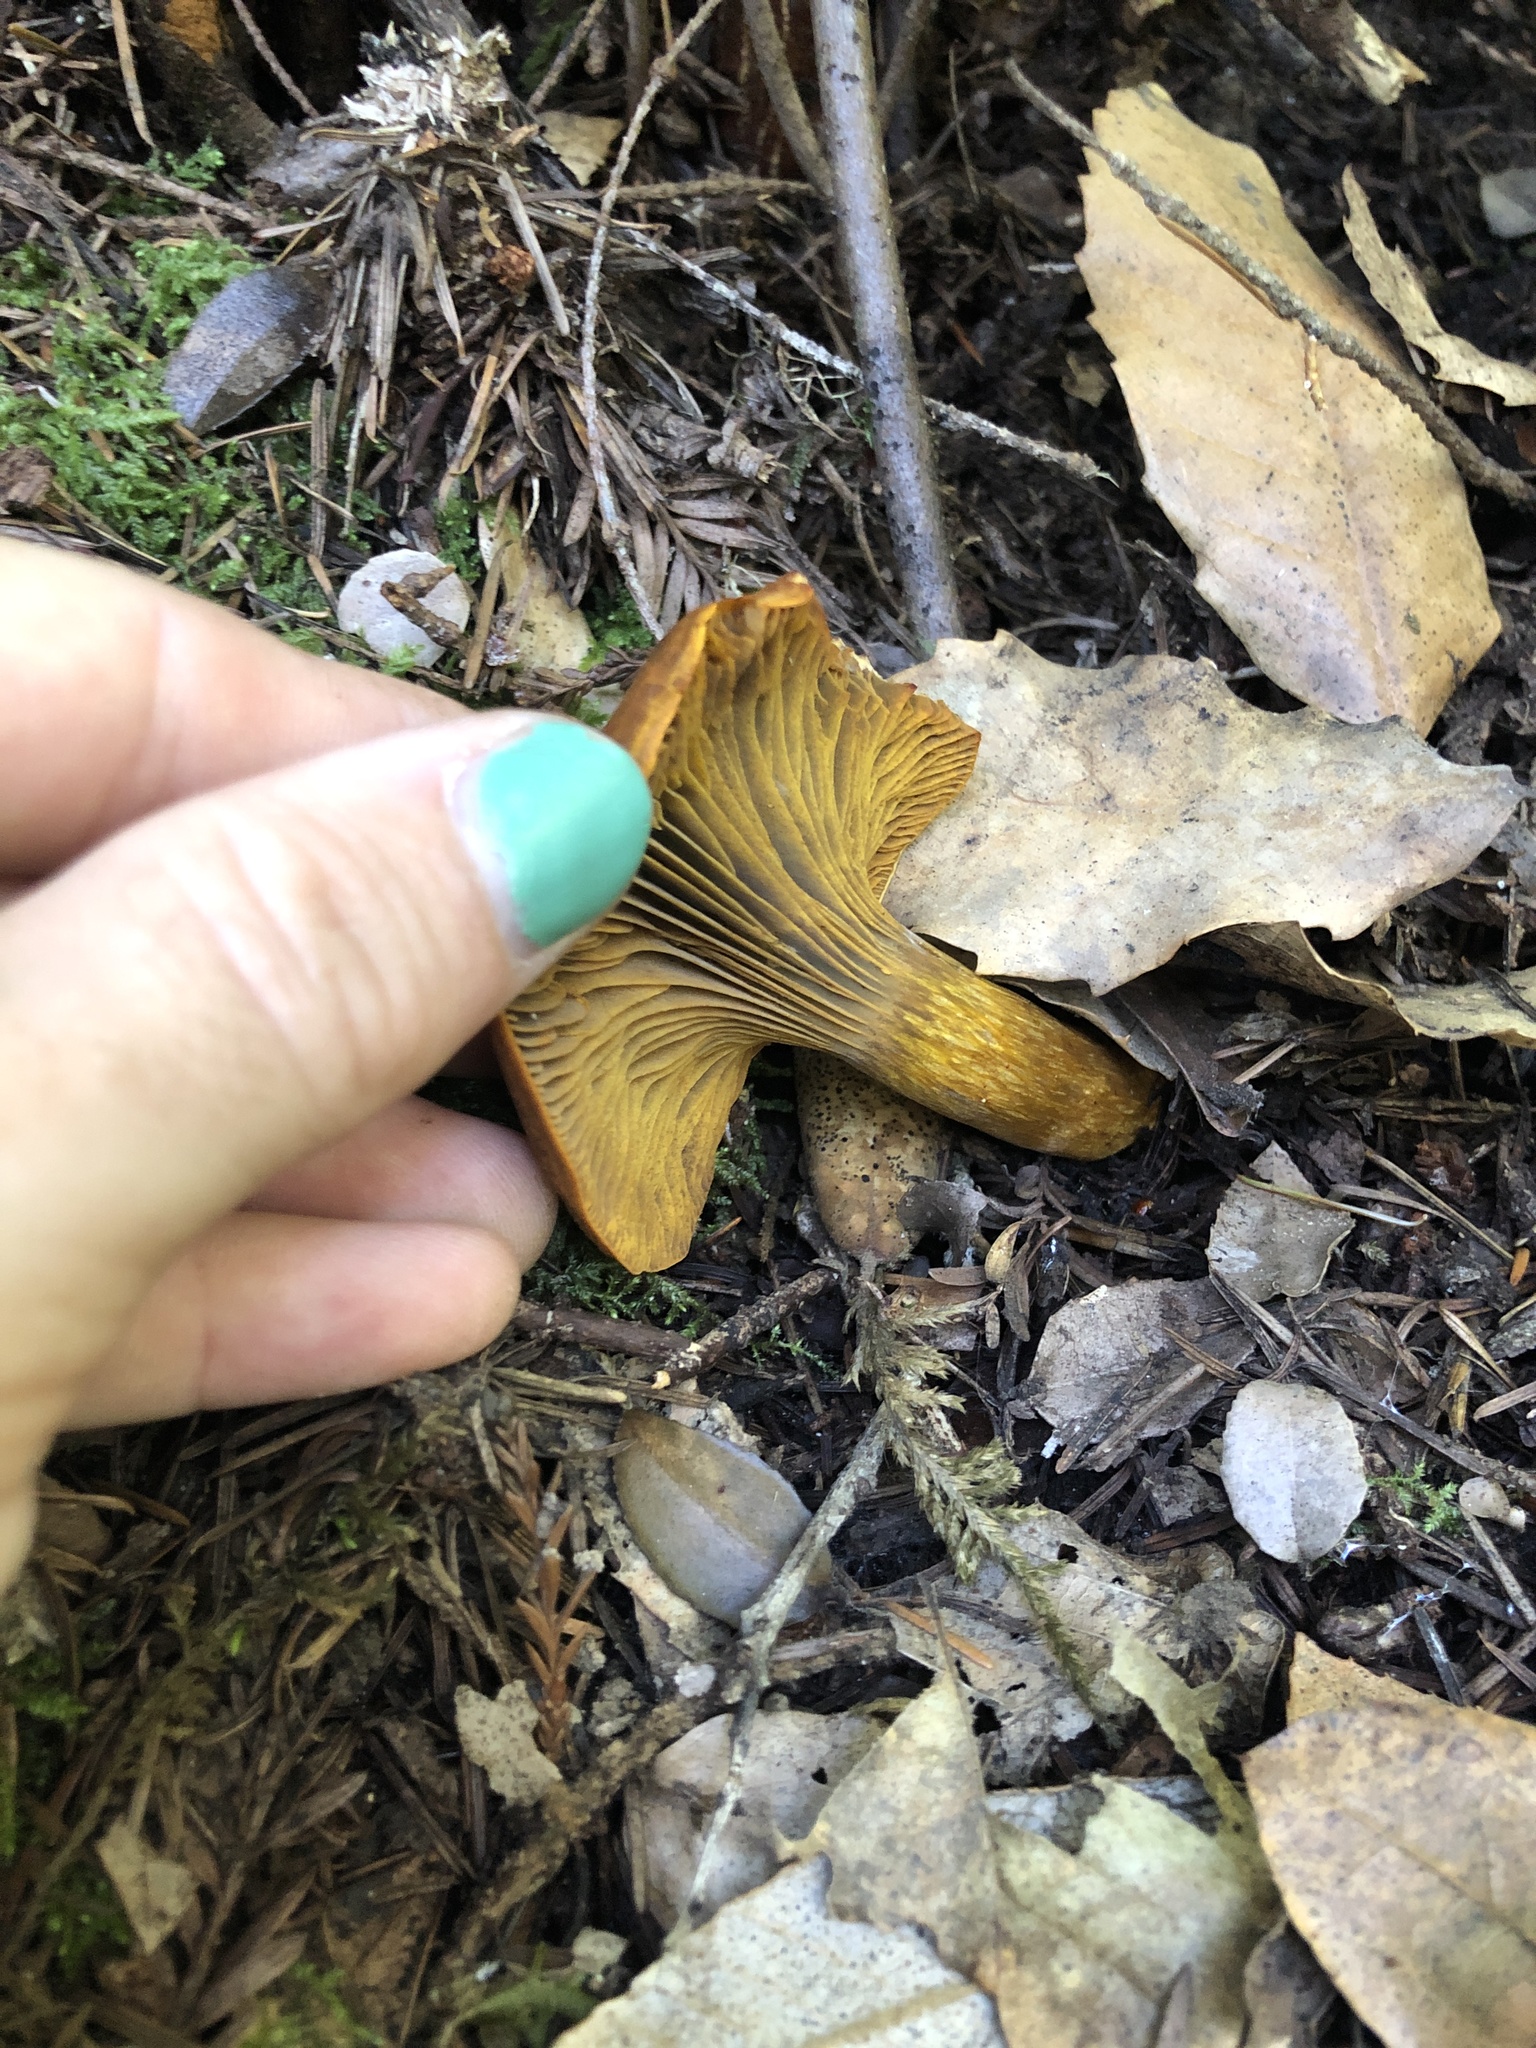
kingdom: Fungi
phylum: Basidiomycota
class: Agaricomycetes
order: Agaricales
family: Omphalotaceae
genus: Omphalotus
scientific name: Omphalotus olivascens
